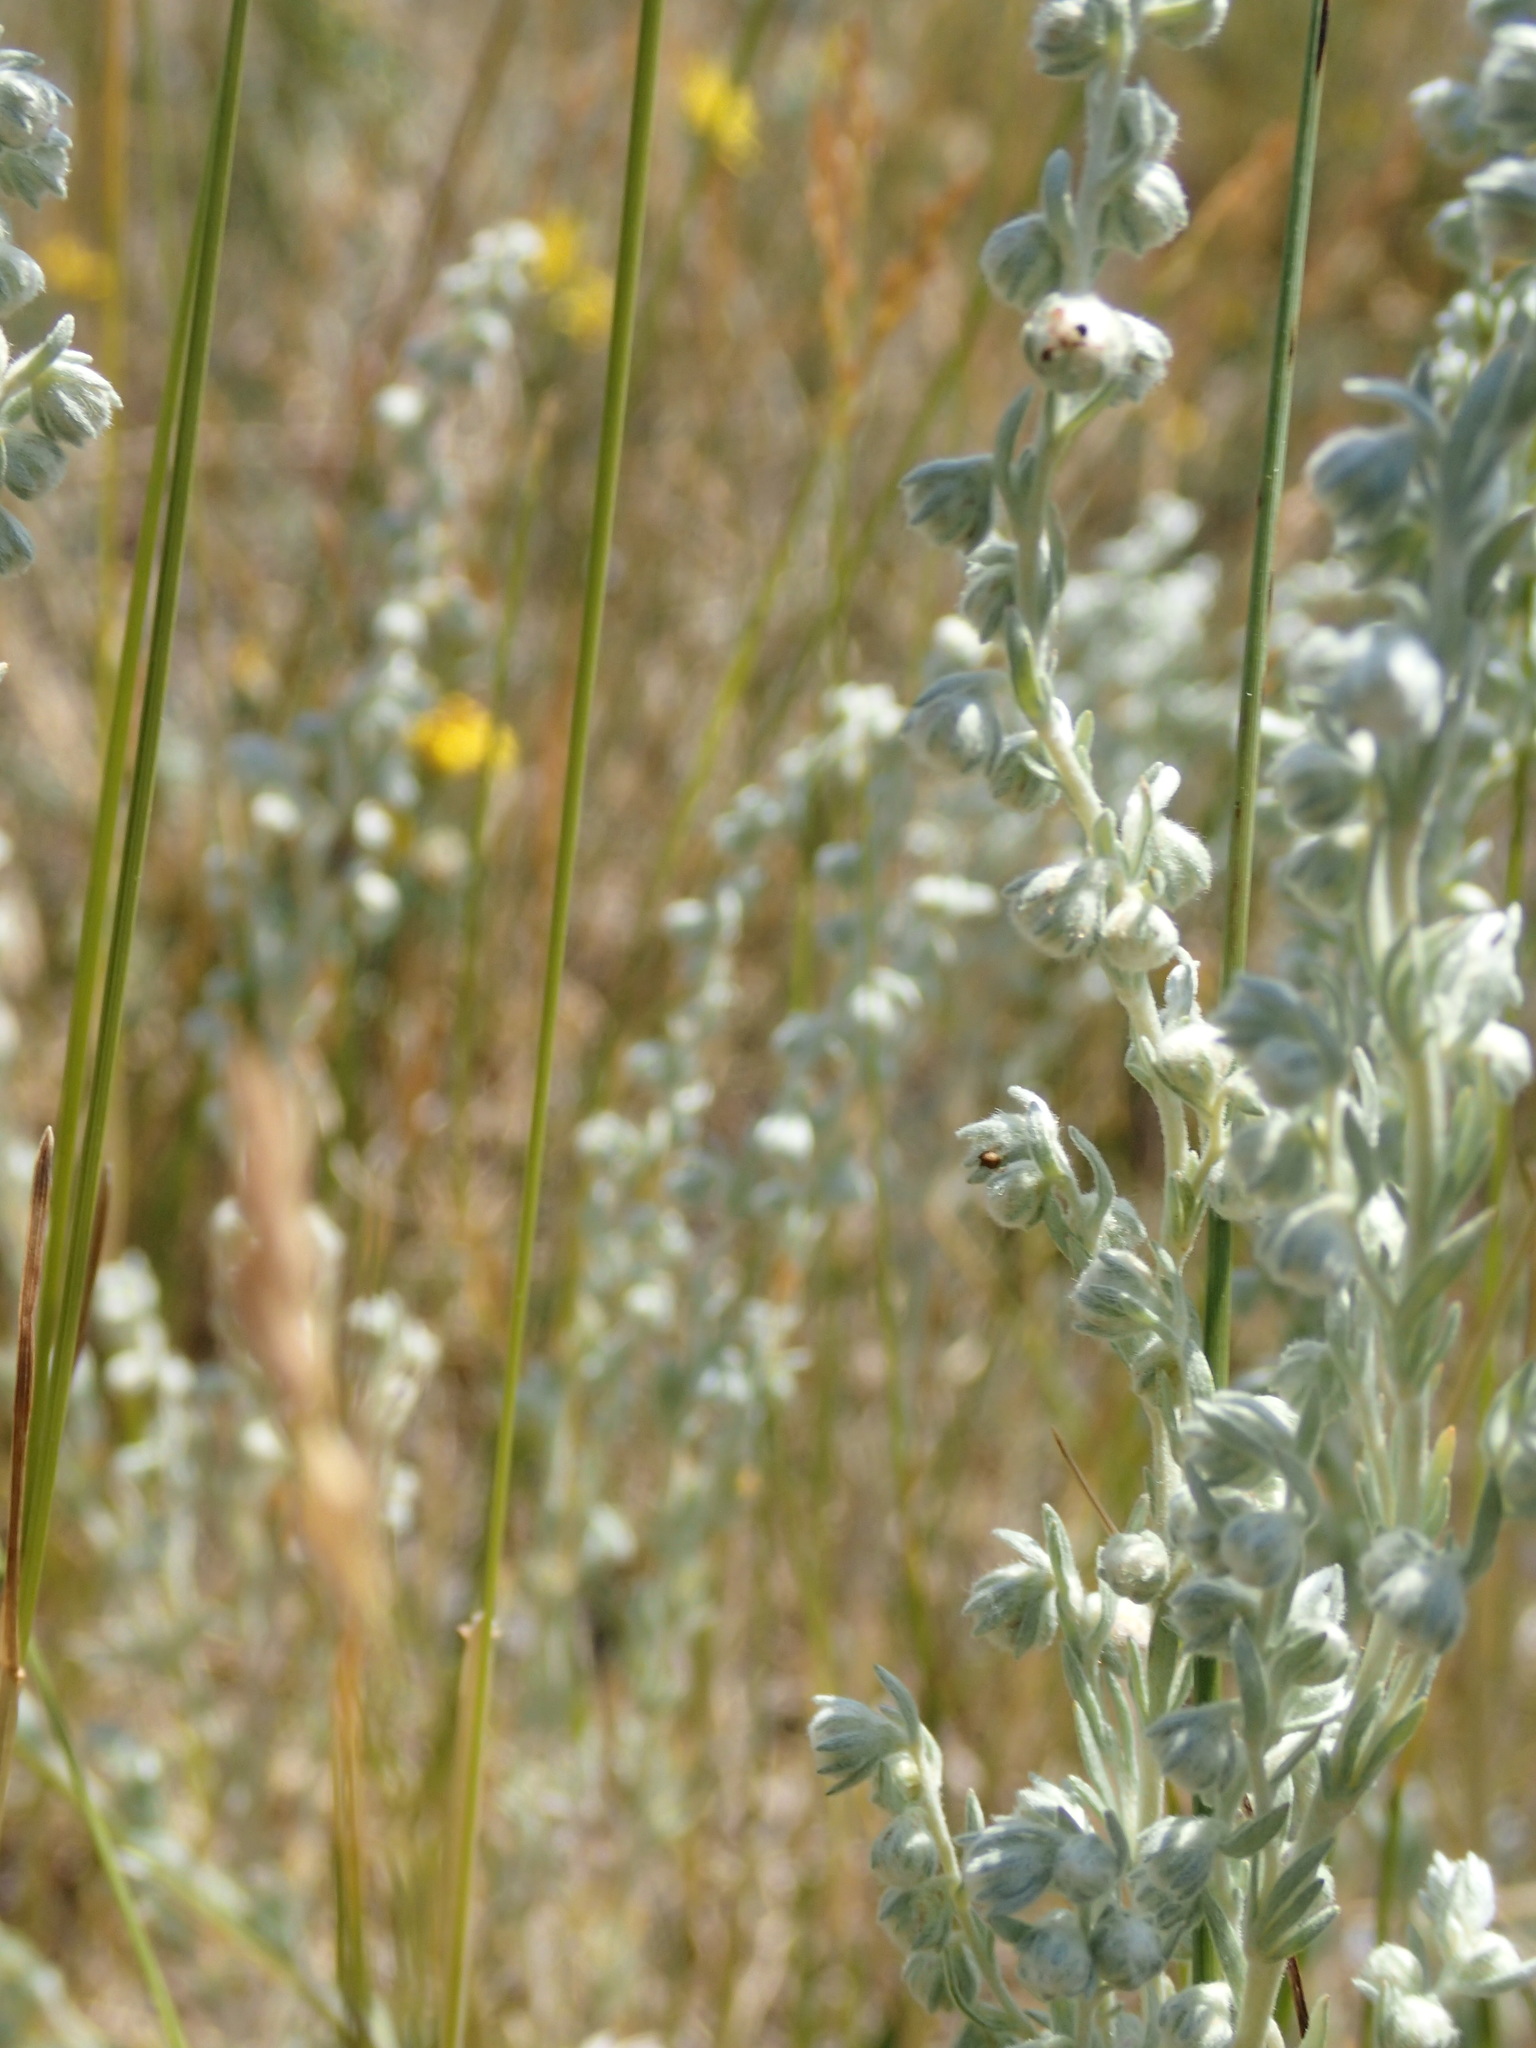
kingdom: Plantae
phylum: Tracheophyta
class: Magnoliopsida
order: Asterales
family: Asteraceae
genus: Artemisia
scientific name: Artemisia frigida
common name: Prairie sagewort
